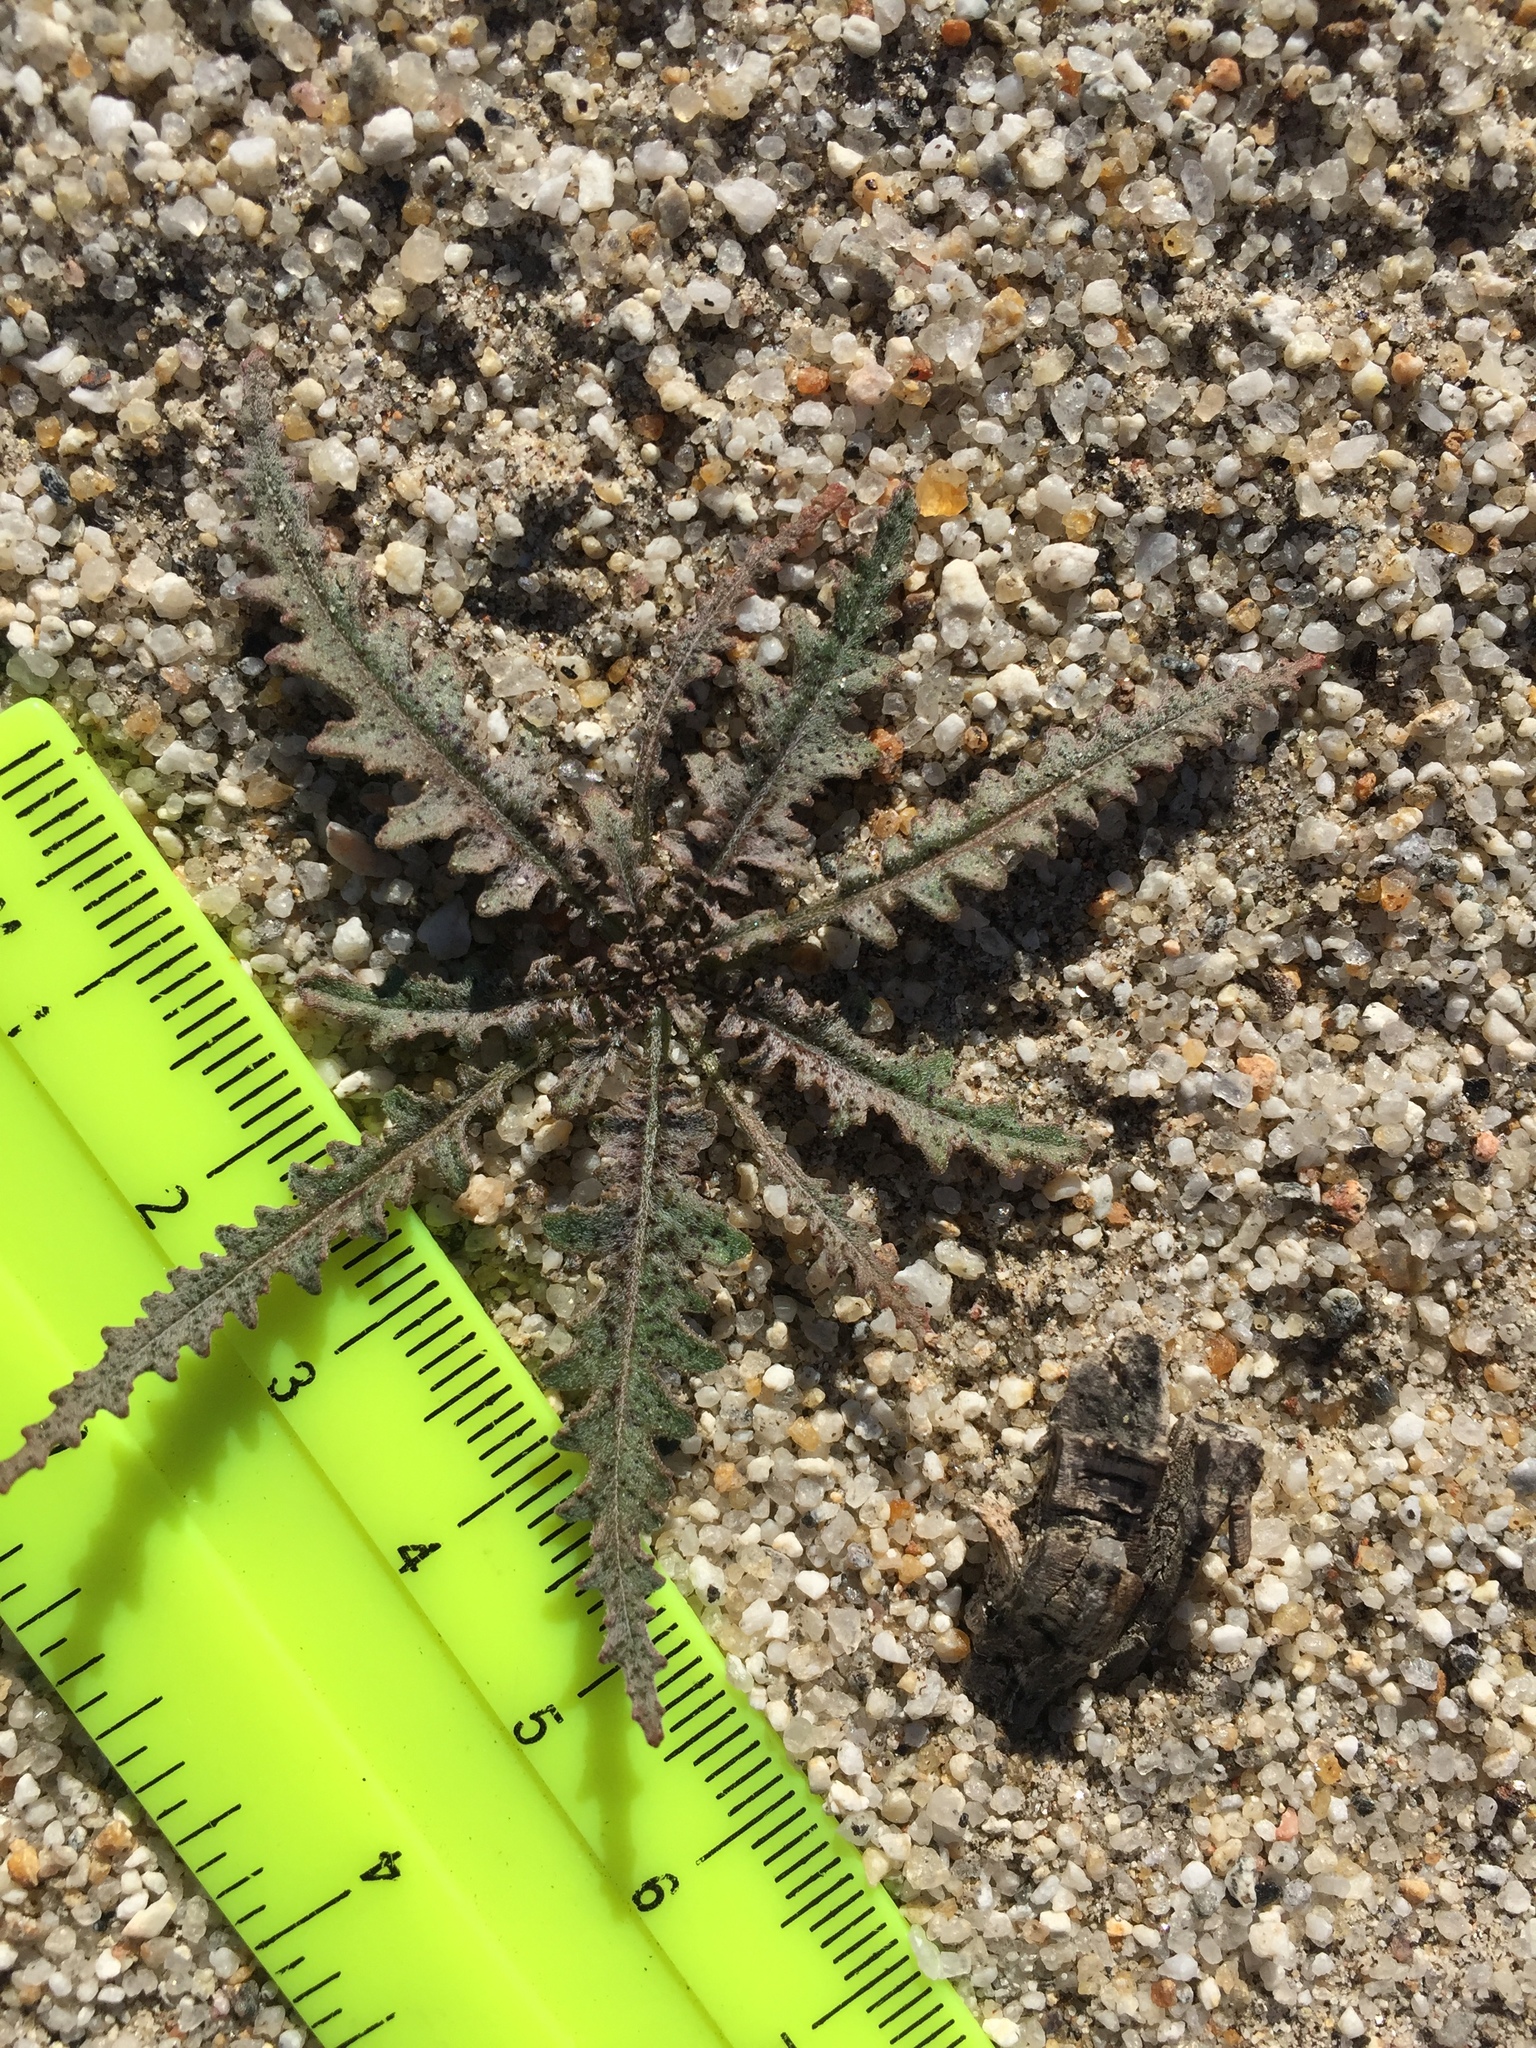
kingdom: Plantae
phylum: Tracheophyta
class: Magnoliopsida
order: Myrtales
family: Onagraceae
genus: Eulobus
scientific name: Eulobus californicus
